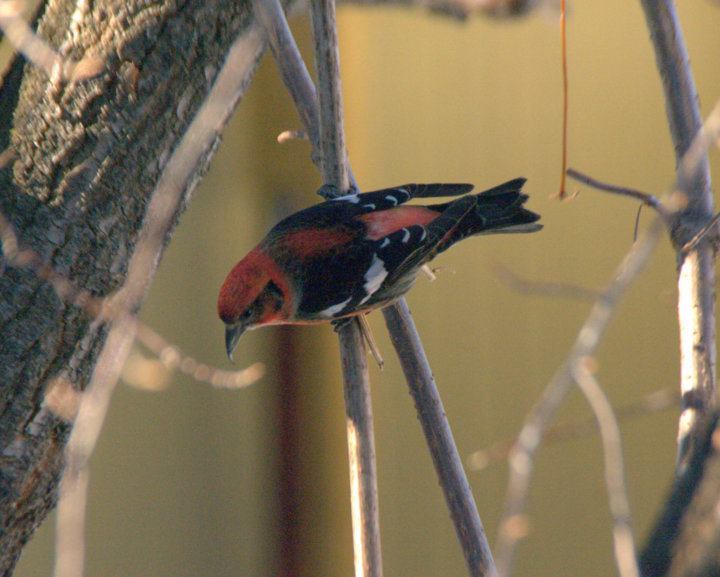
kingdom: Animalia
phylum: Chordata
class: Aves
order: Passeriformes
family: Fringillidae
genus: Loxia
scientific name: Loxia leucoptera
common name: Two-barred crossbill
